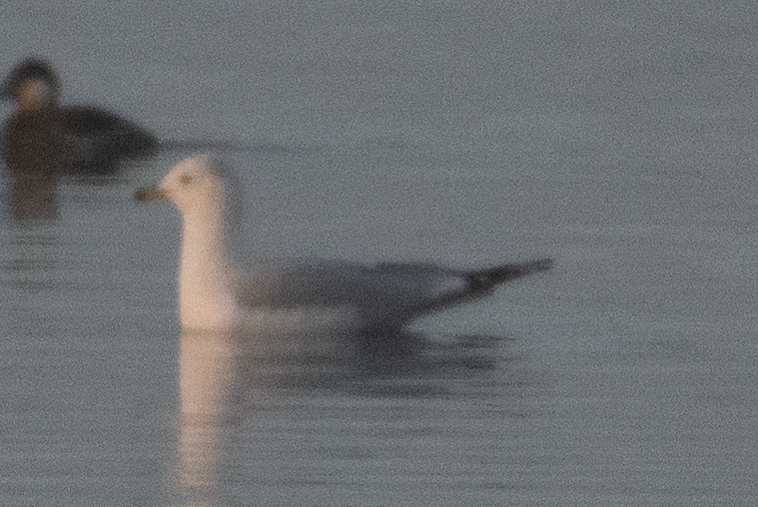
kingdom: Animalia
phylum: Chordata
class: Aves
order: Charadriiformes
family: Laridae
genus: Larus
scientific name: Larus brachyrhynchus
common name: Short-billed gull
